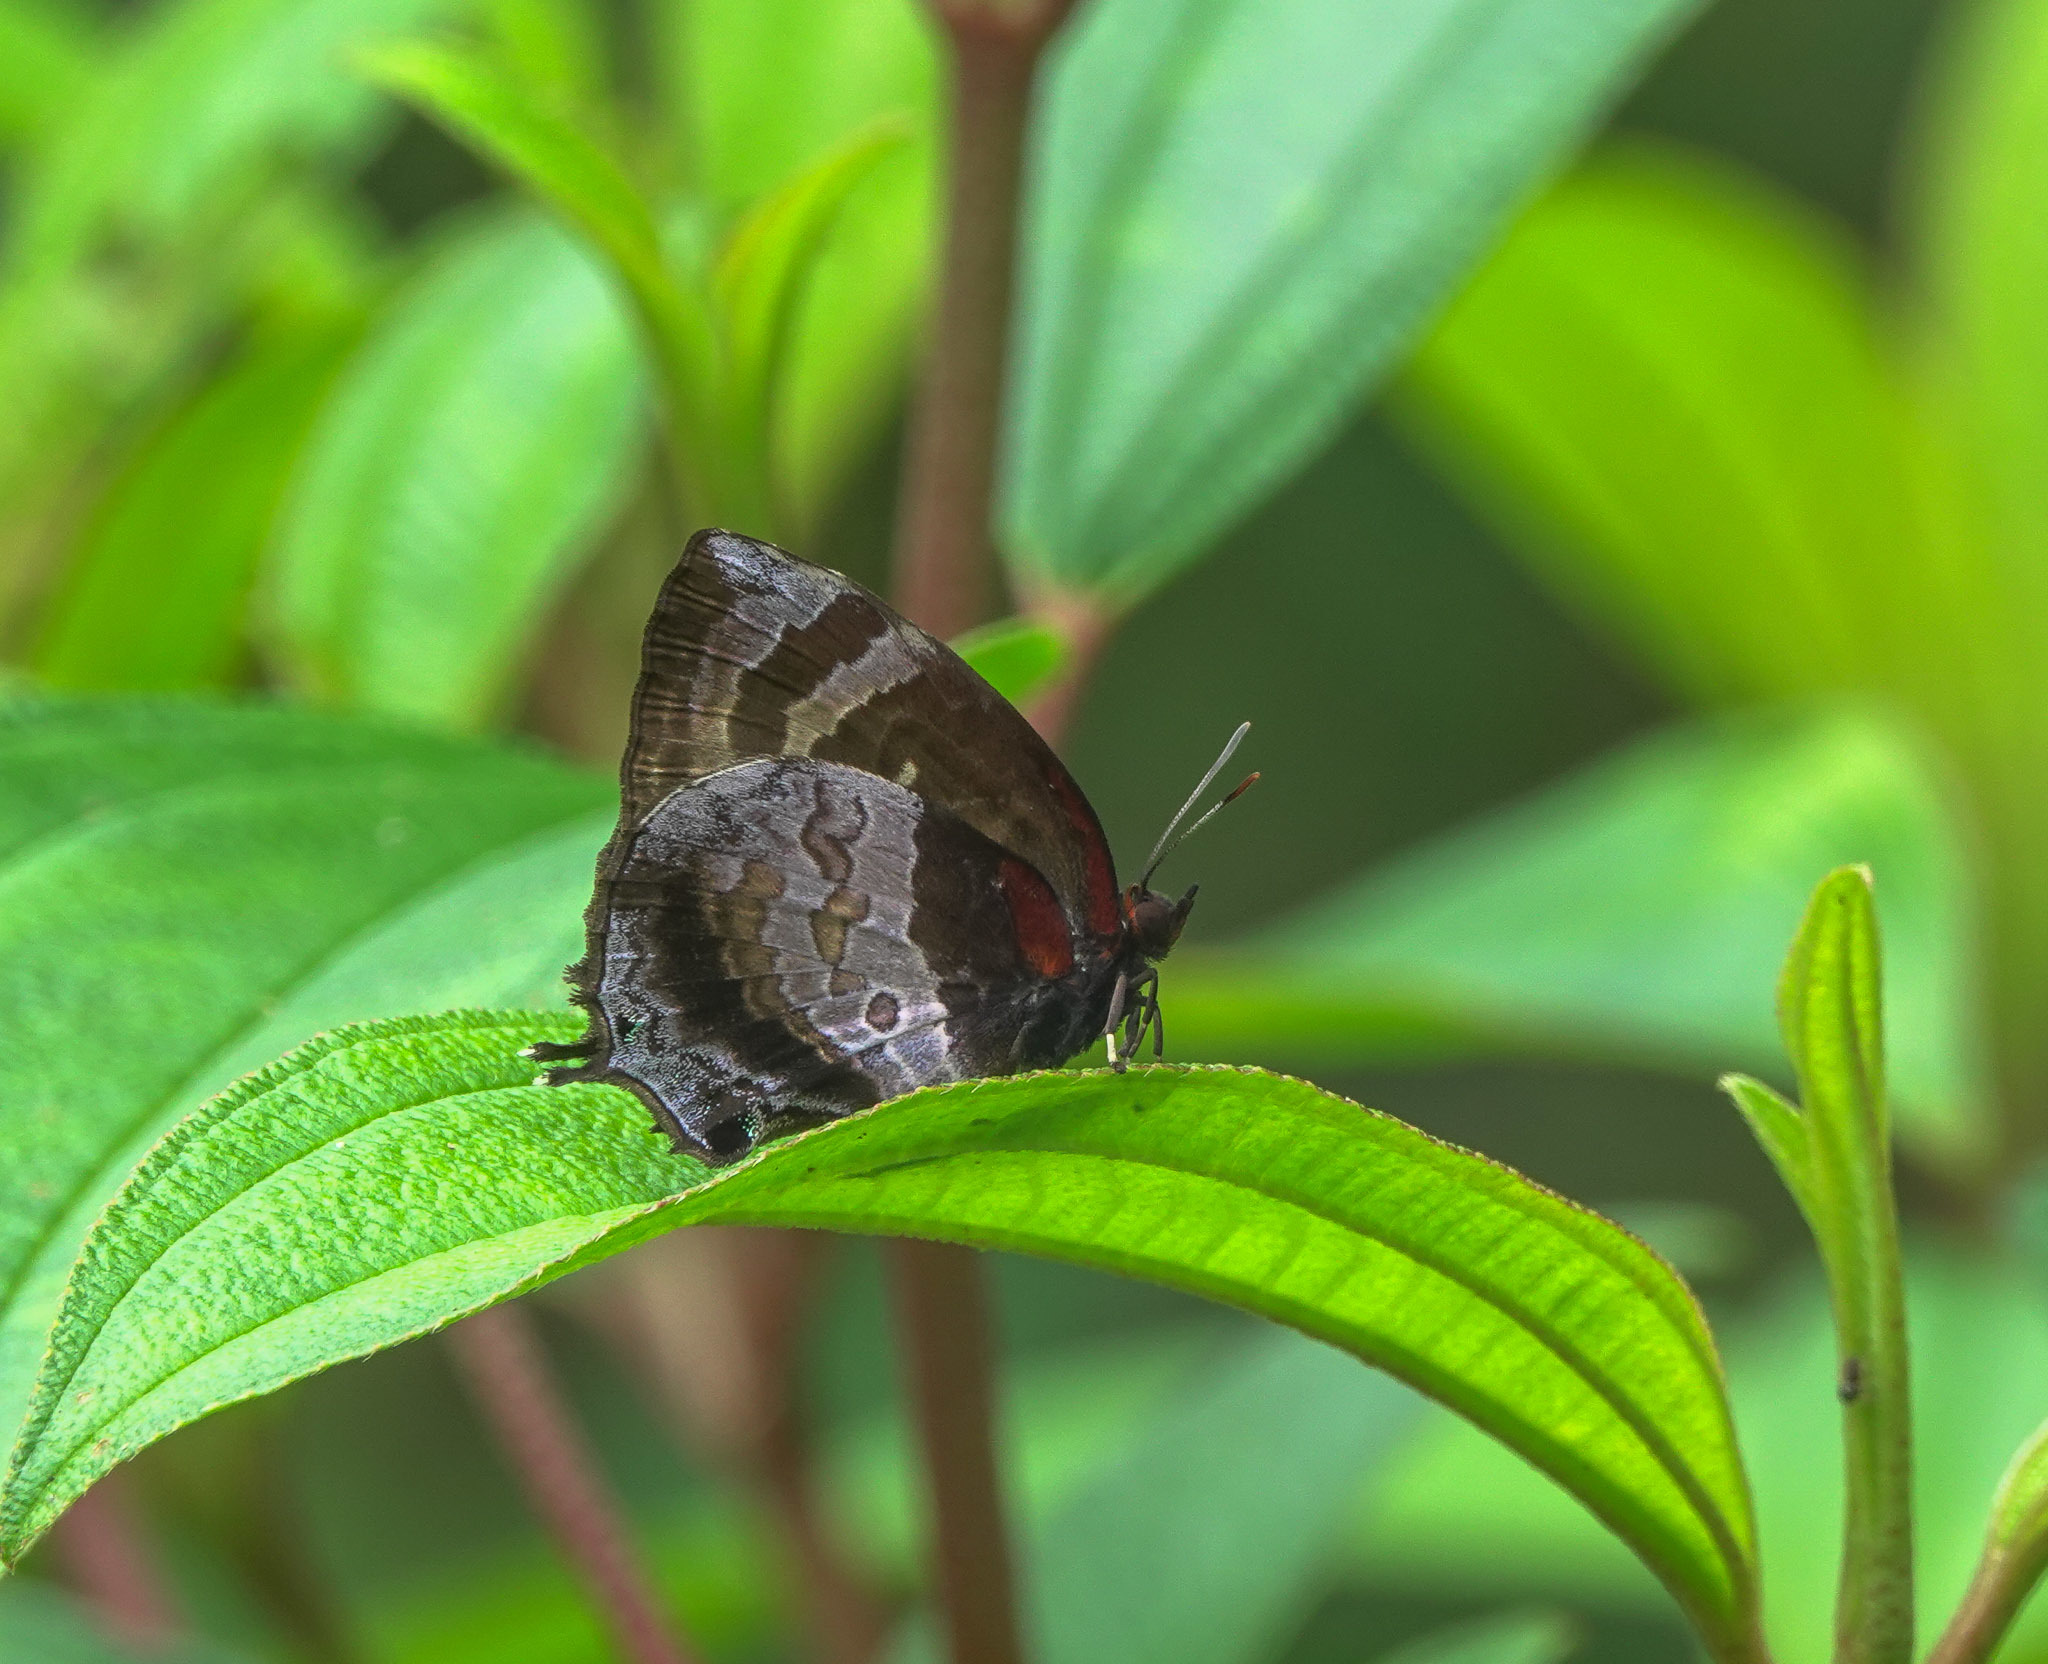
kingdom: Animalia
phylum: Arthropoda
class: Insecta
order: Lepidoptera
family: Lycaenidae
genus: Flos
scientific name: Flos apidanus
